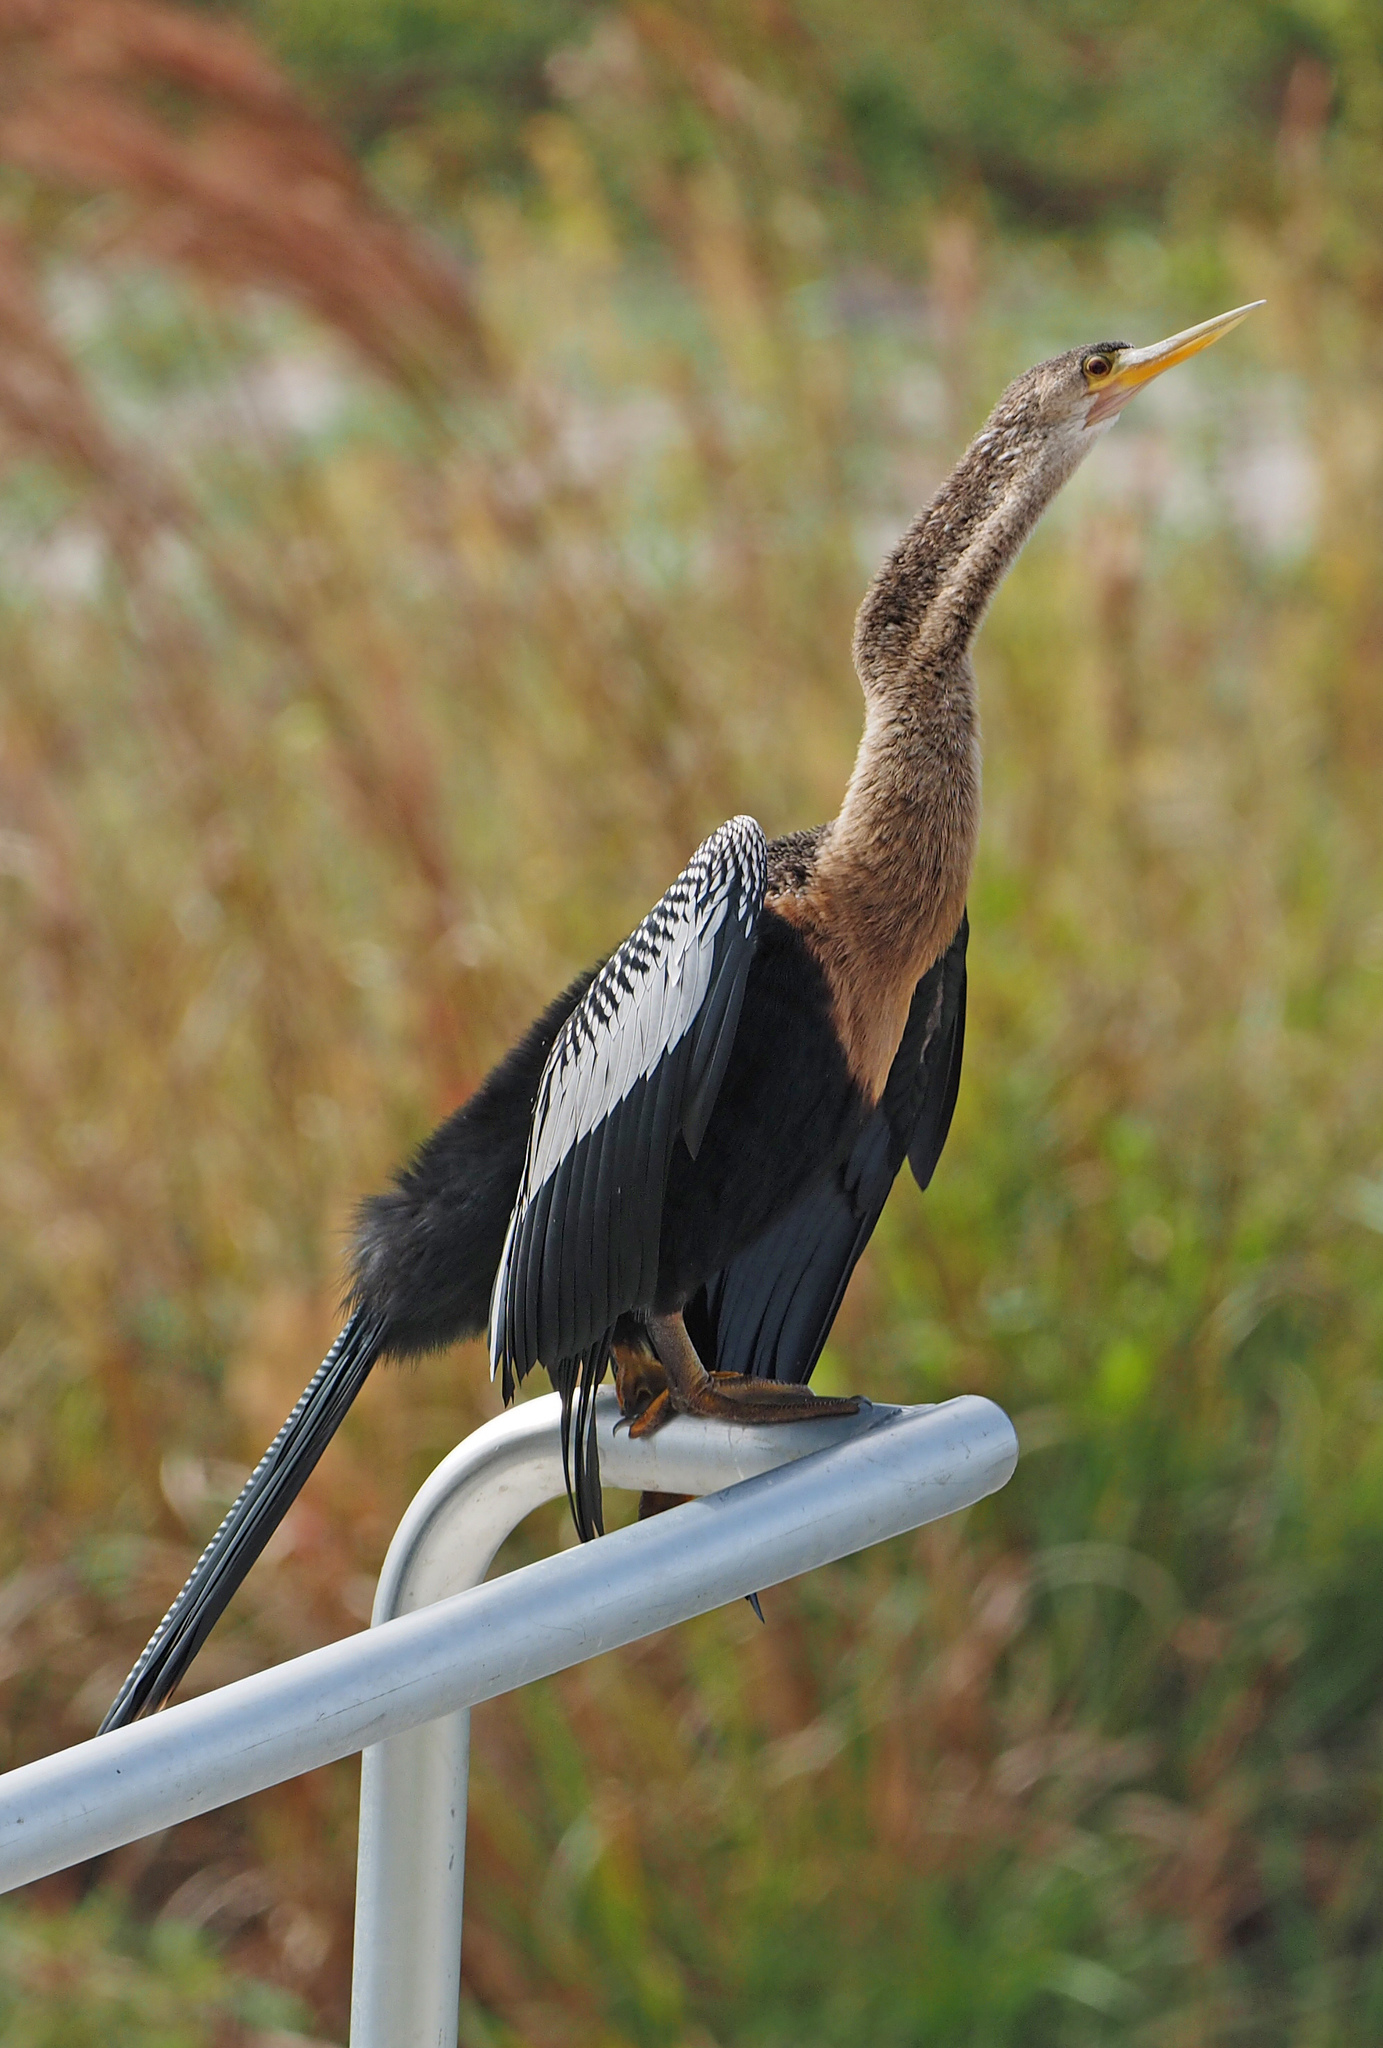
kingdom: Animalia
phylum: Chordata
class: Aves
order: Suliformes
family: Anhingidae
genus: Anhinga
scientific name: Anhinga anhinga
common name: Anhinga
